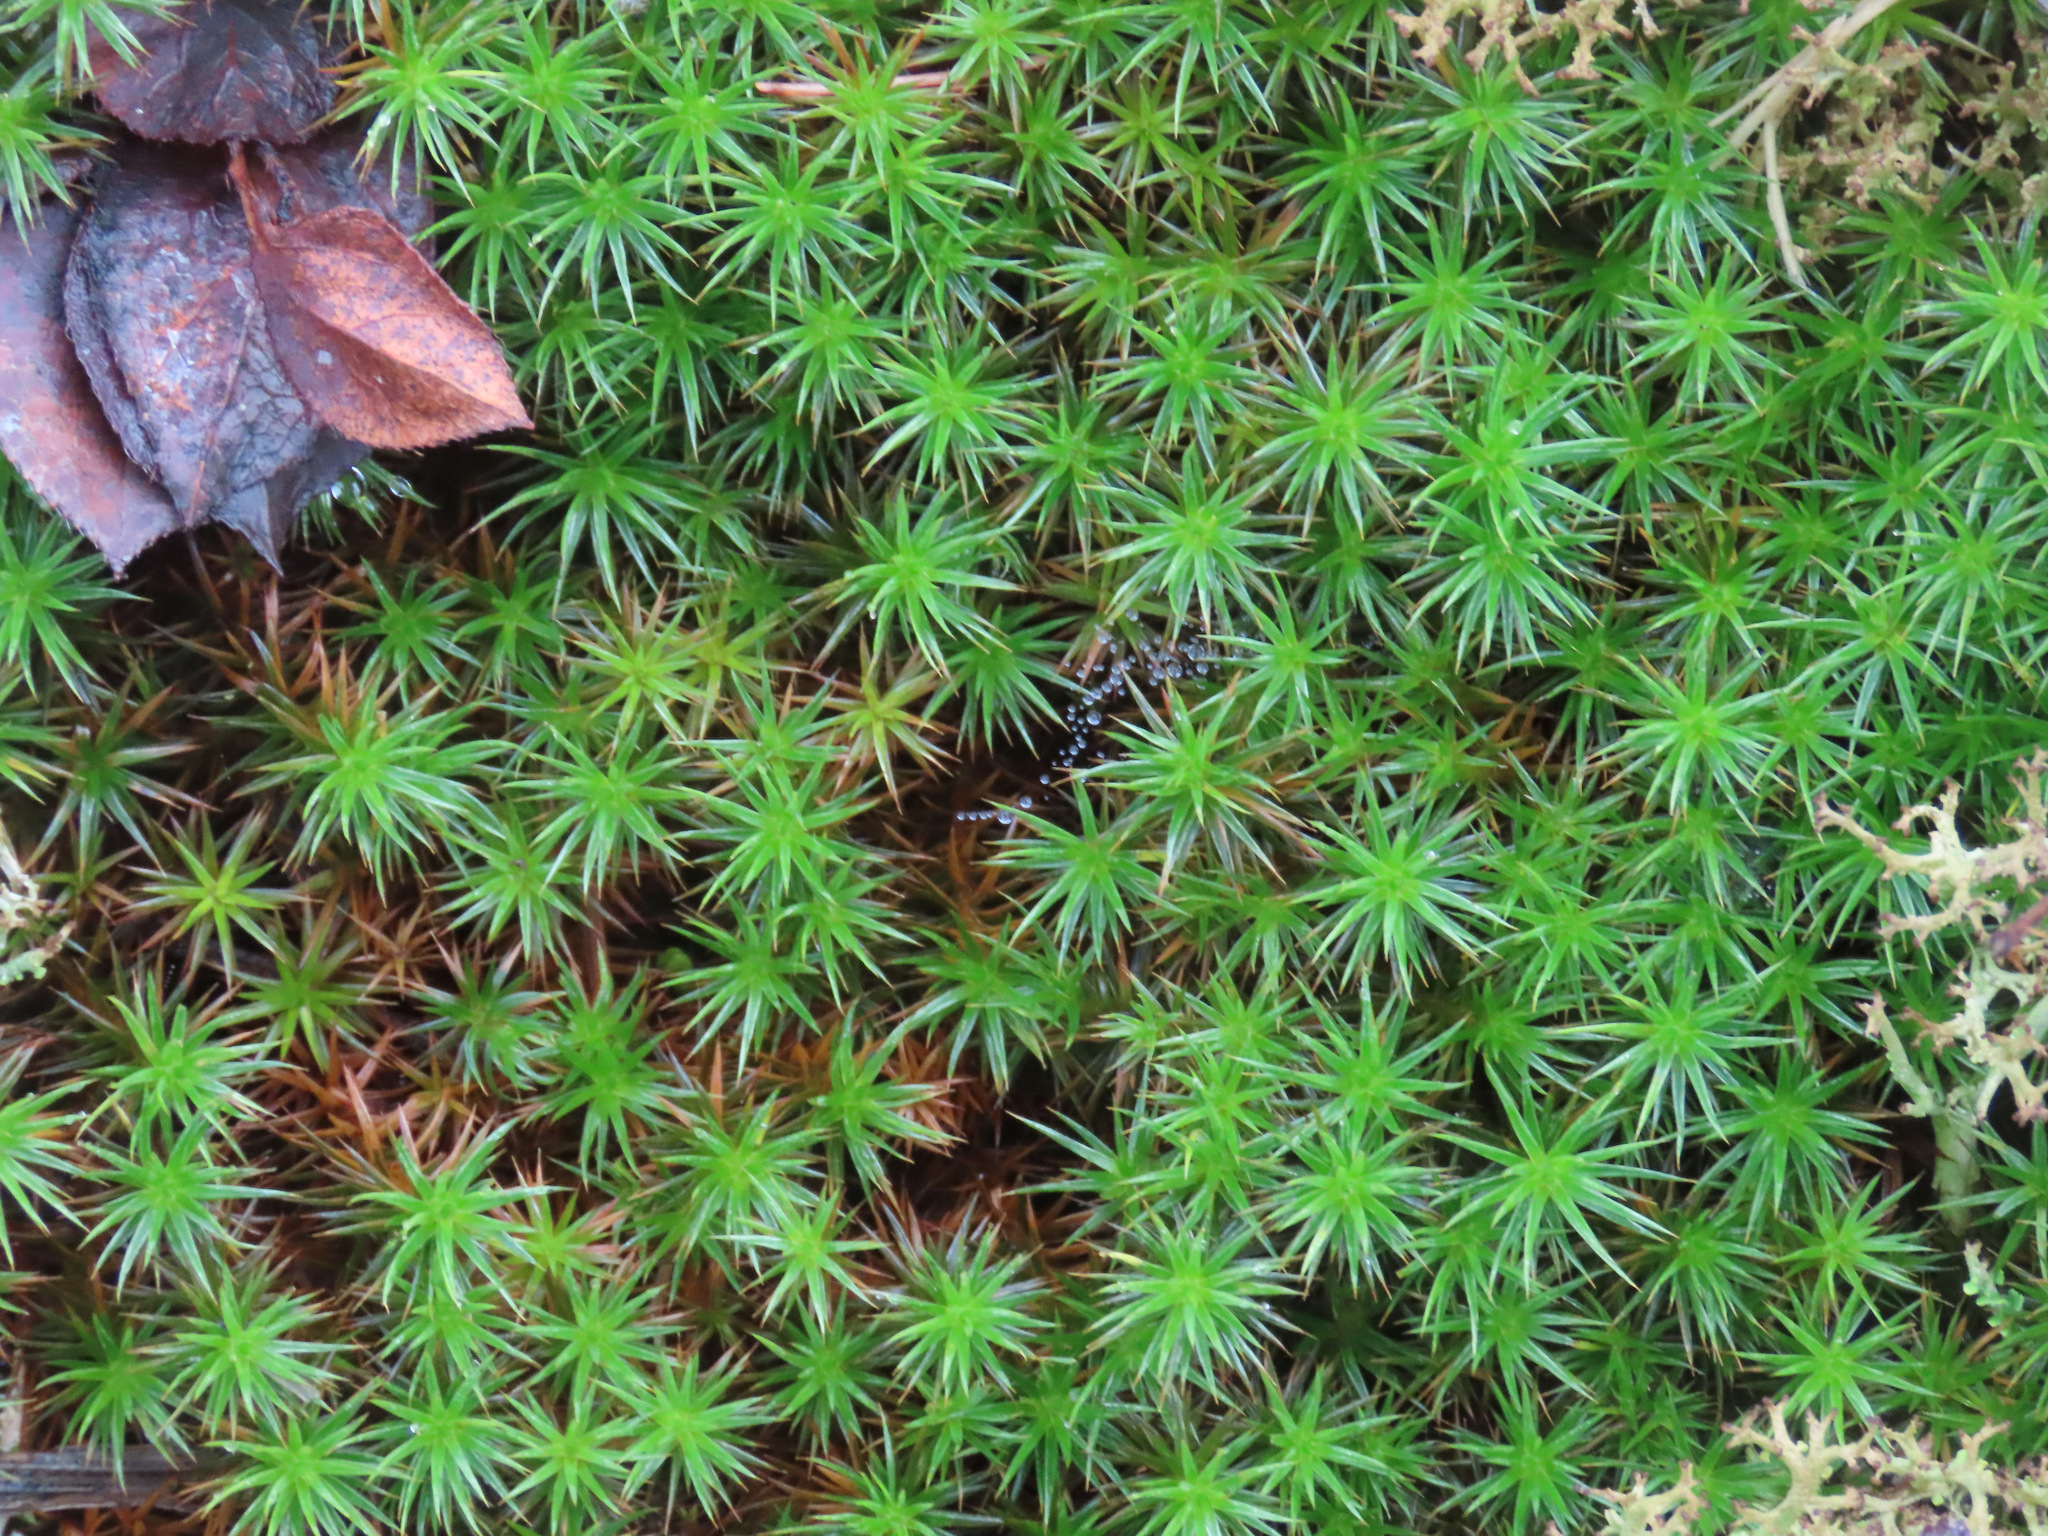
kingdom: Plantae
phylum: Bryophyta
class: Polytrichopsida
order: Polytrichales
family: Polytrichaceae
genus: Polytrichum
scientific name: Polytrichum juniperinum
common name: Juniper haircap moss
